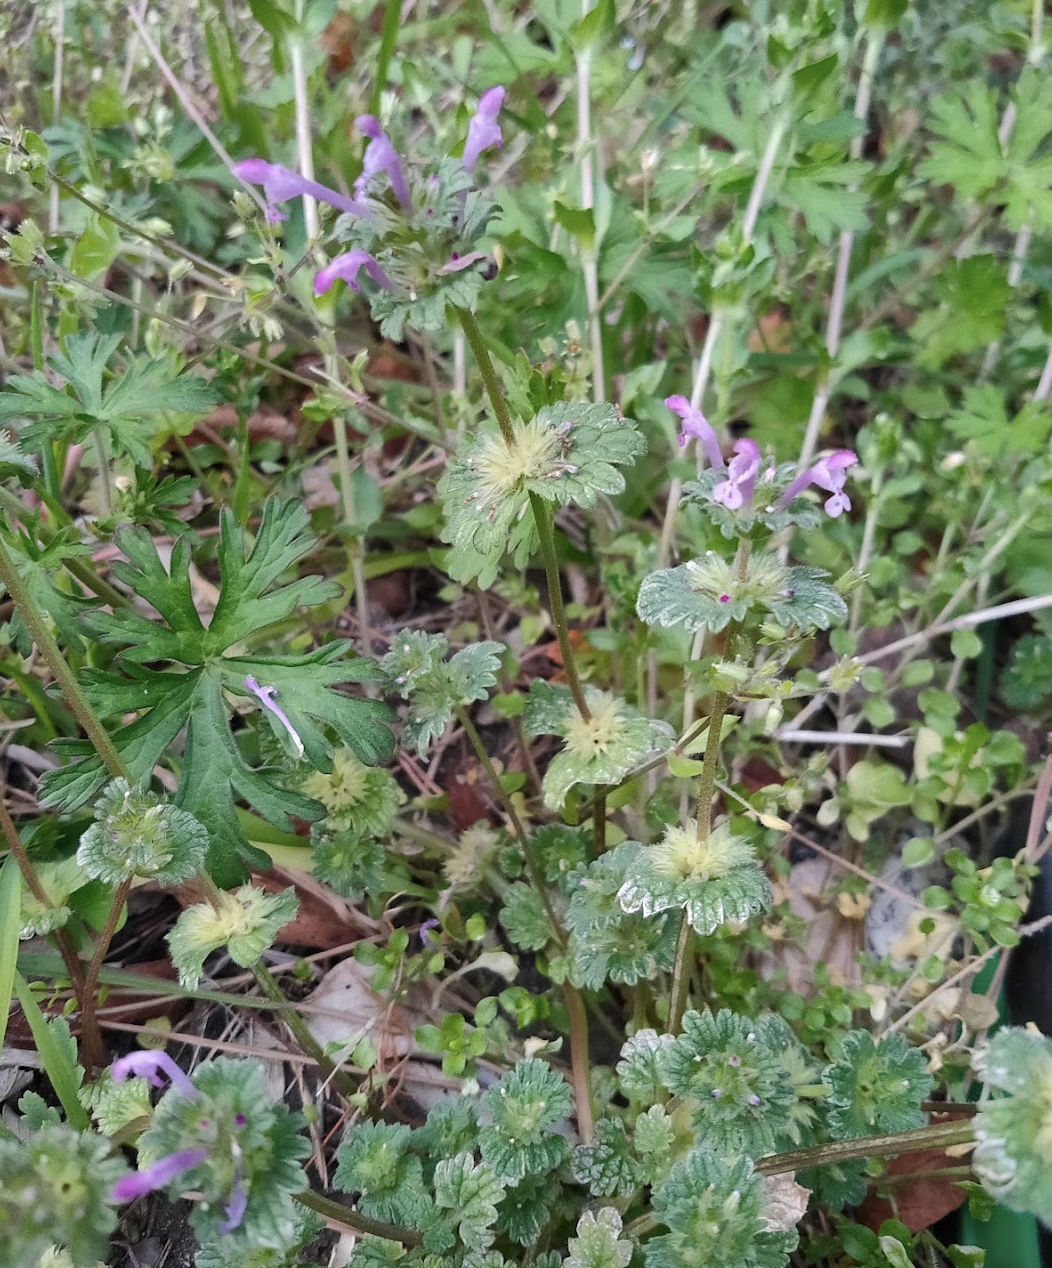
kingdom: Plantae
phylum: Tracheophyta
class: Magnoliopsida
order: Lamiales
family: Lamiaceae
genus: Lamium
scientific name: Lamium amplexicaule
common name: Henbit dead-nettle
